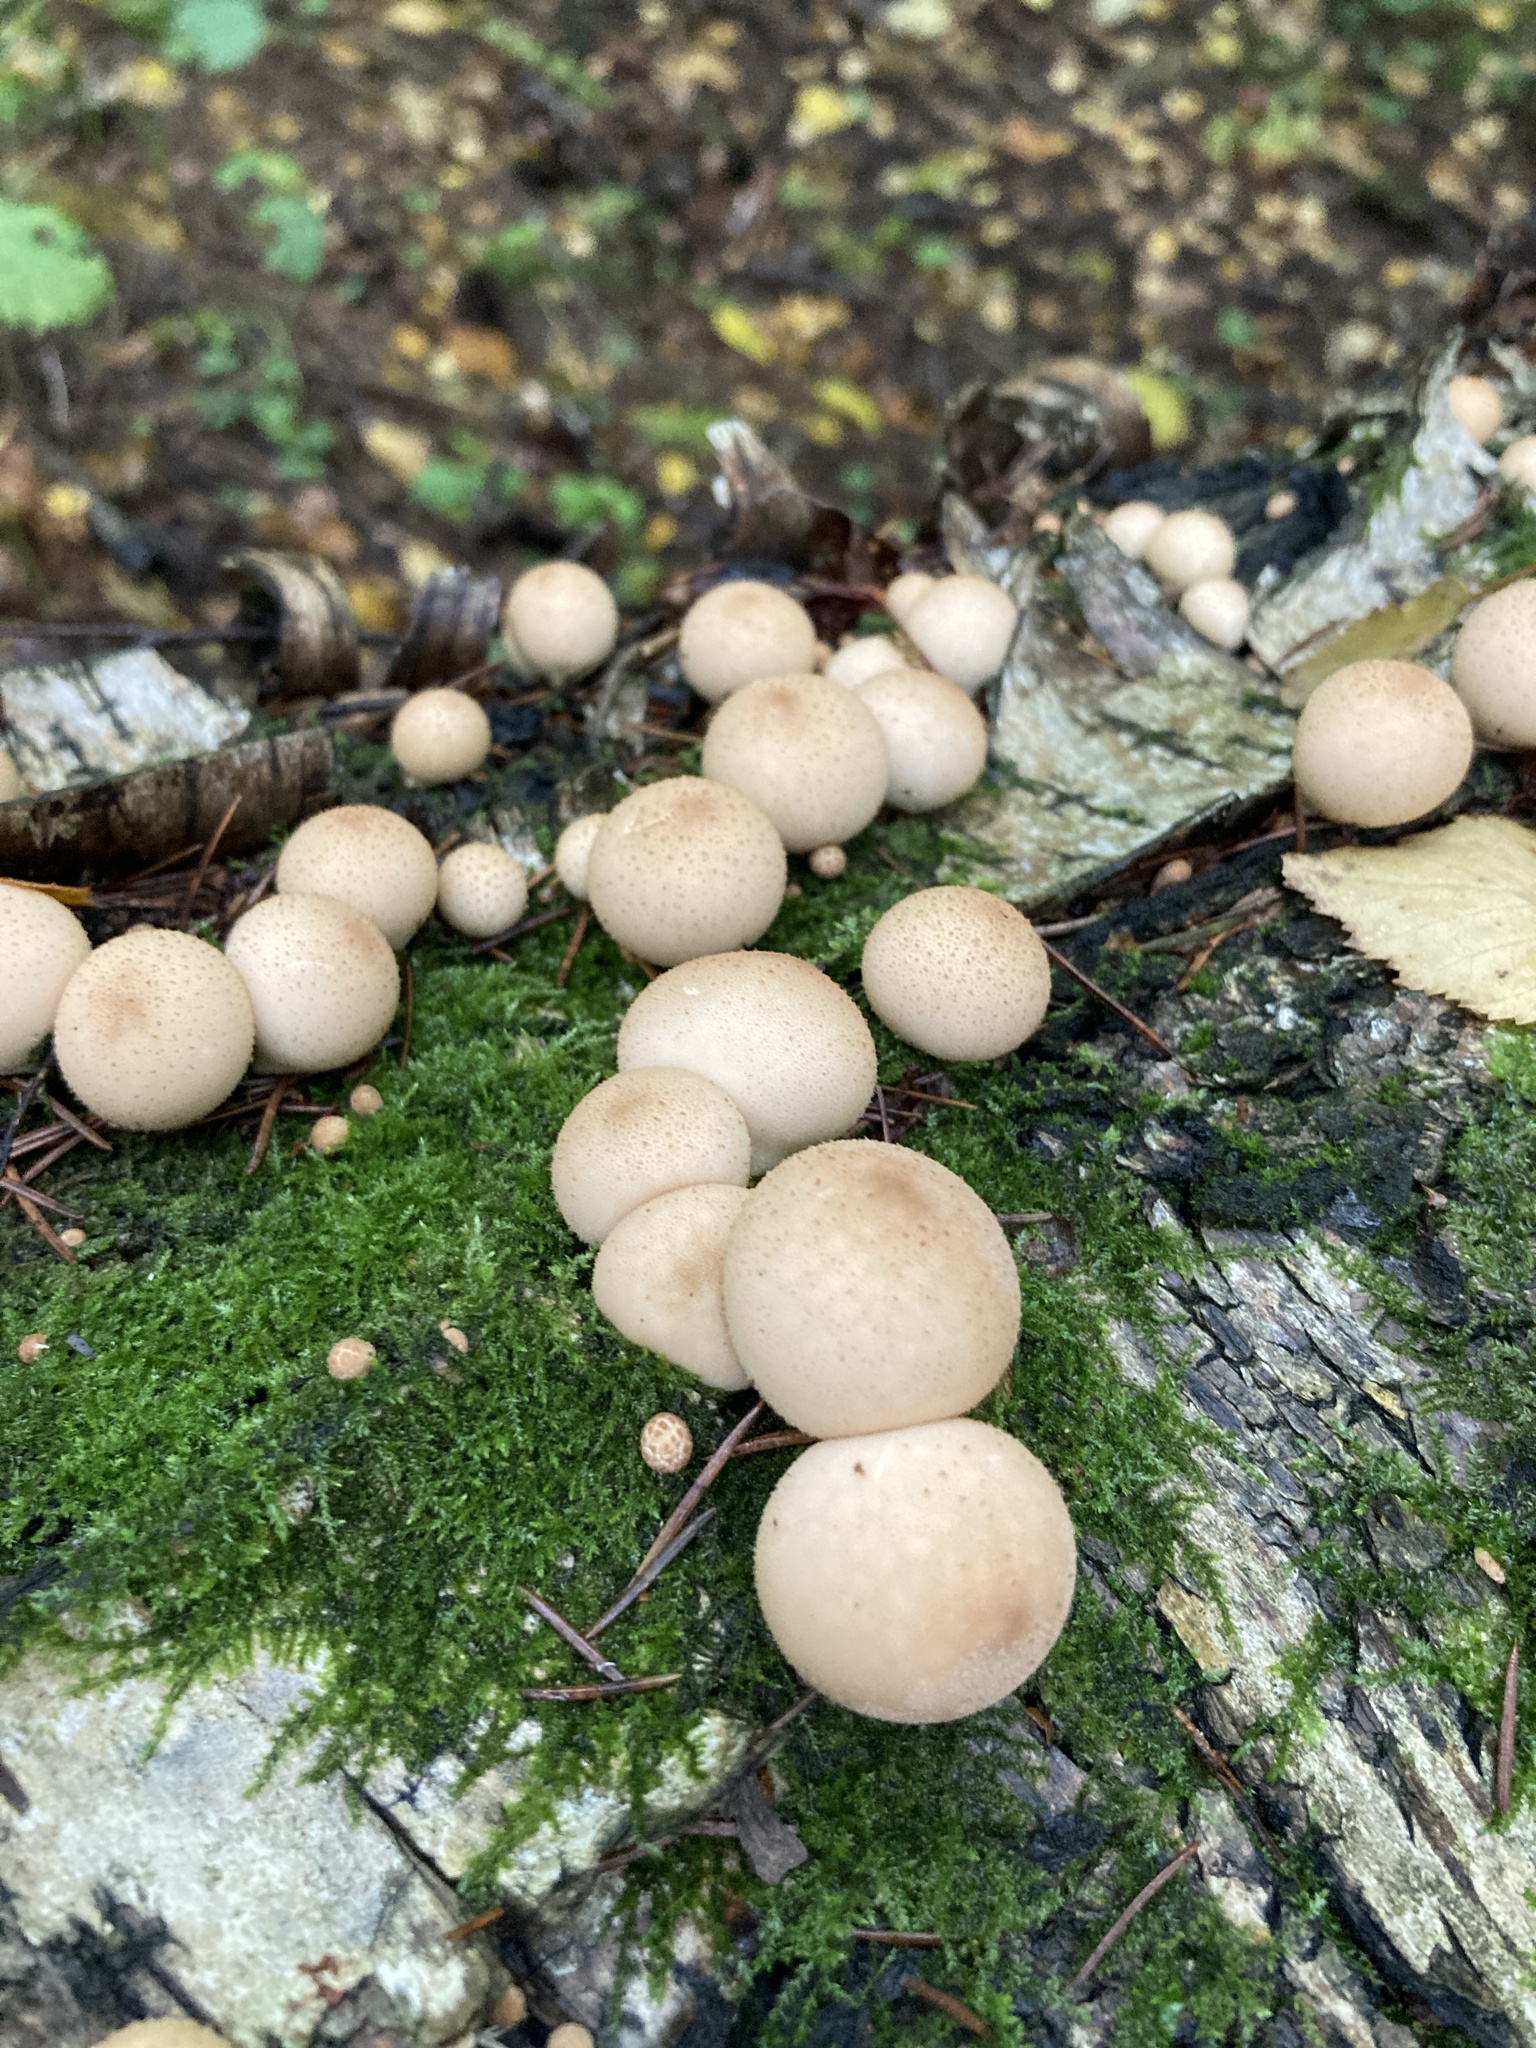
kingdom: Fungi
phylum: Basidiomycota
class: Agaricomycetes
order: Agaricales
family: Lycoperdaceae
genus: Apioperdon
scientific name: Apioperdon pyriforme
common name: Pear-shaped puffball
